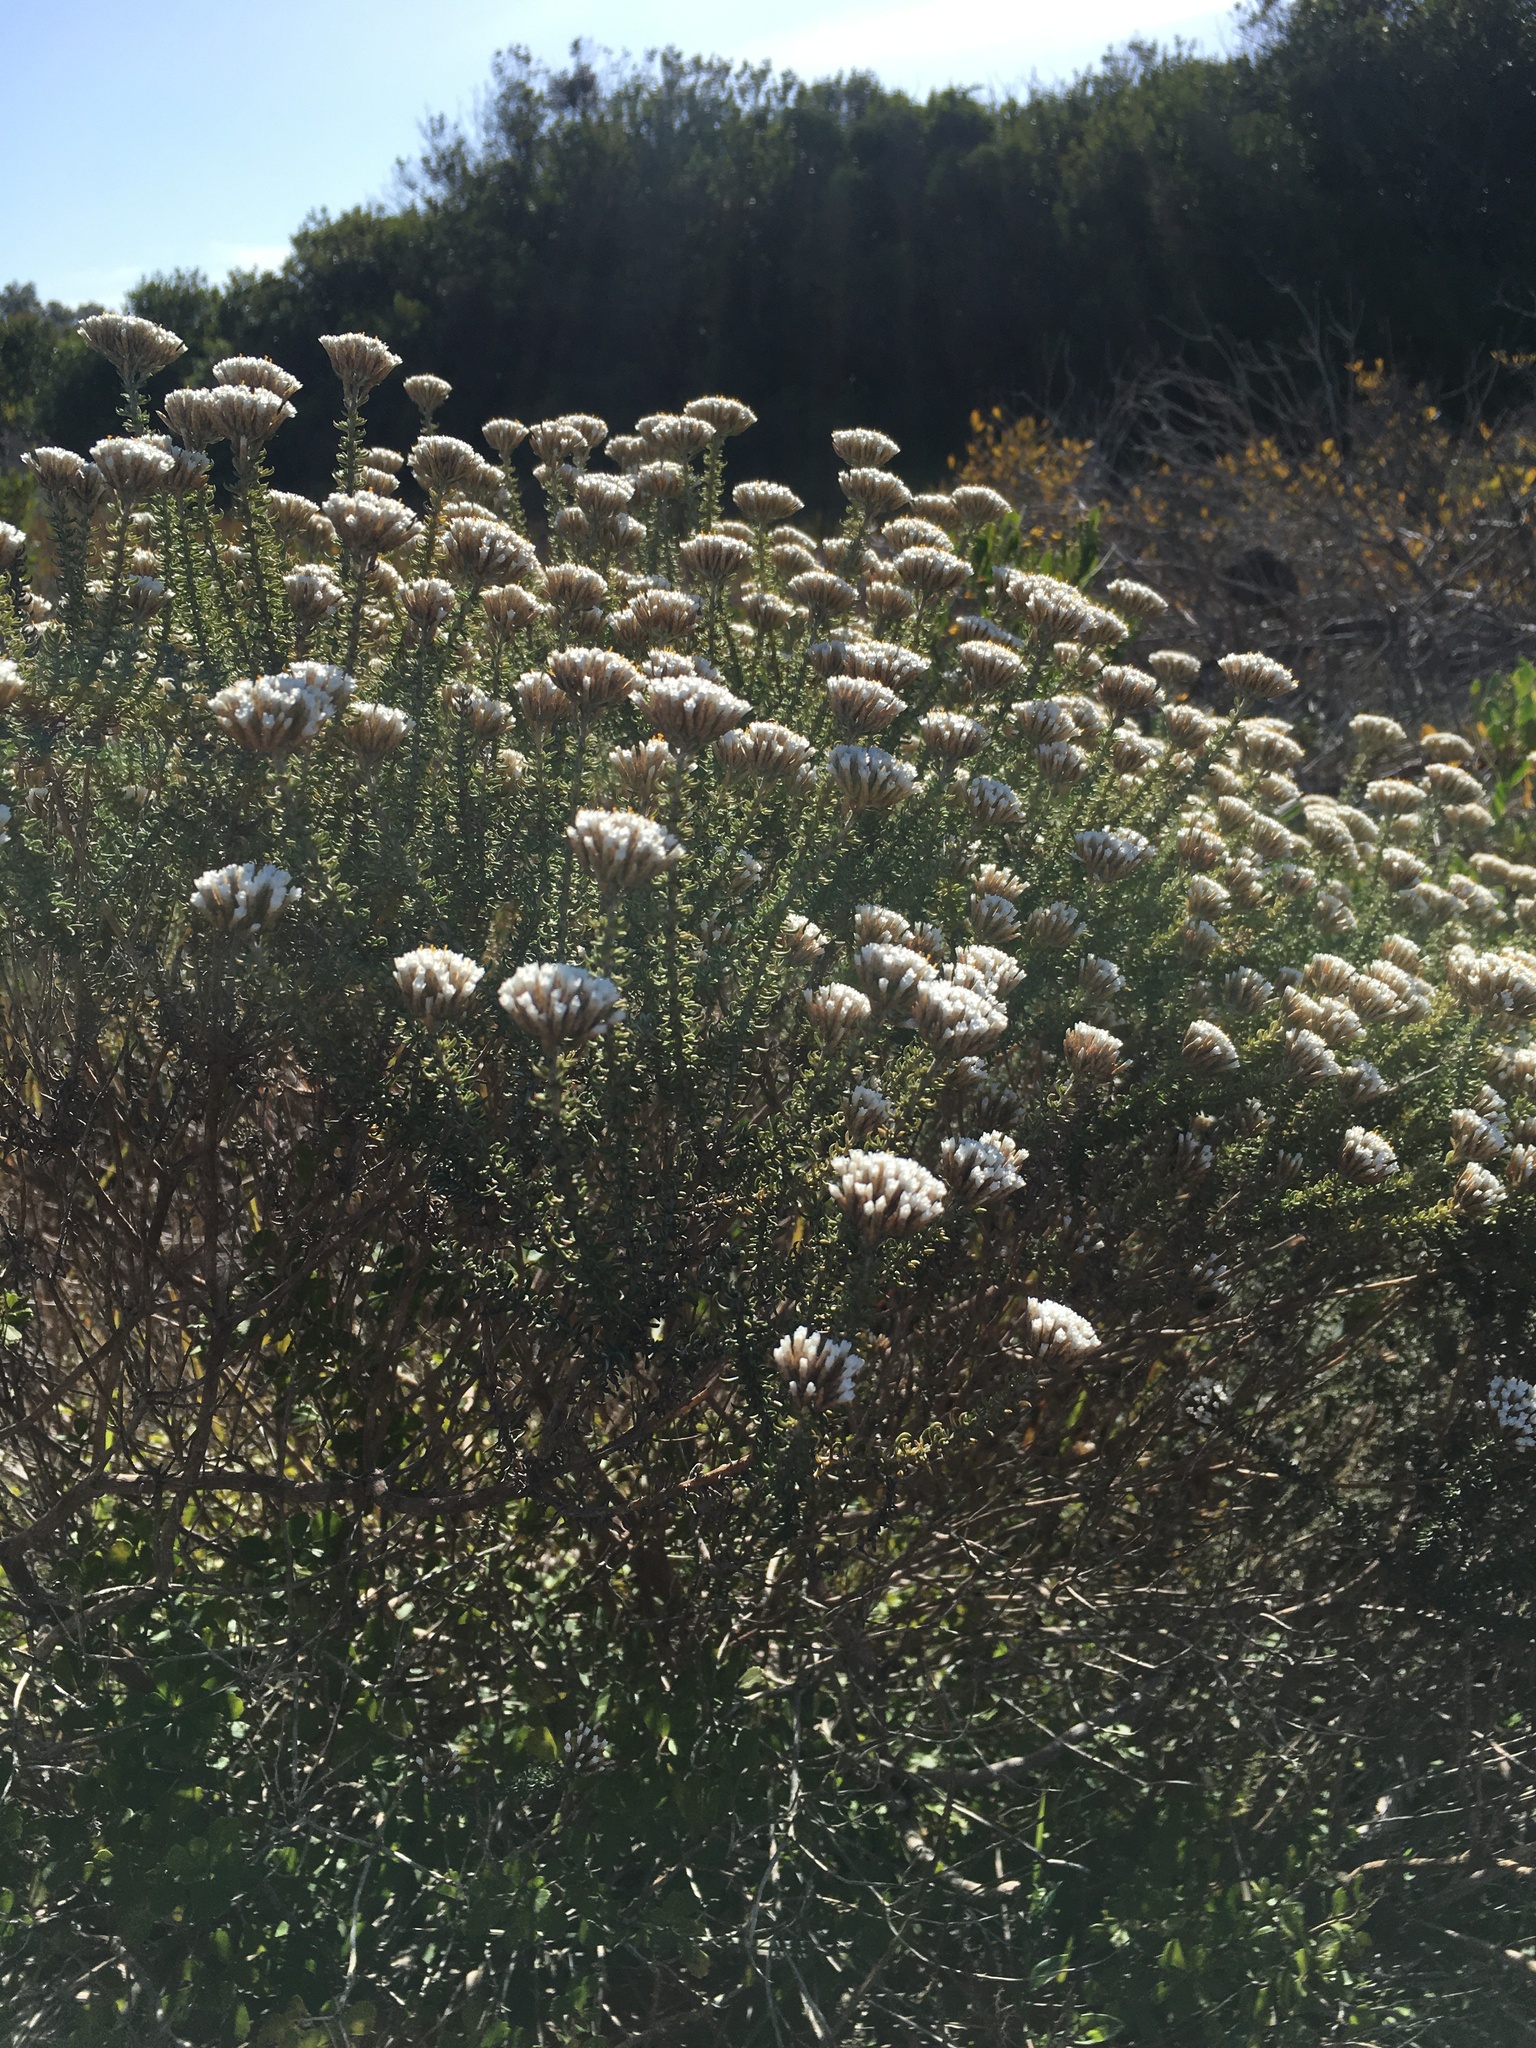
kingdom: Plantae
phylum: Tracheophyta
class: Magnoliopsida
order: Asterales
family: Asteraceae
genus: Metalasia
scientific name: Metalasia muricata
